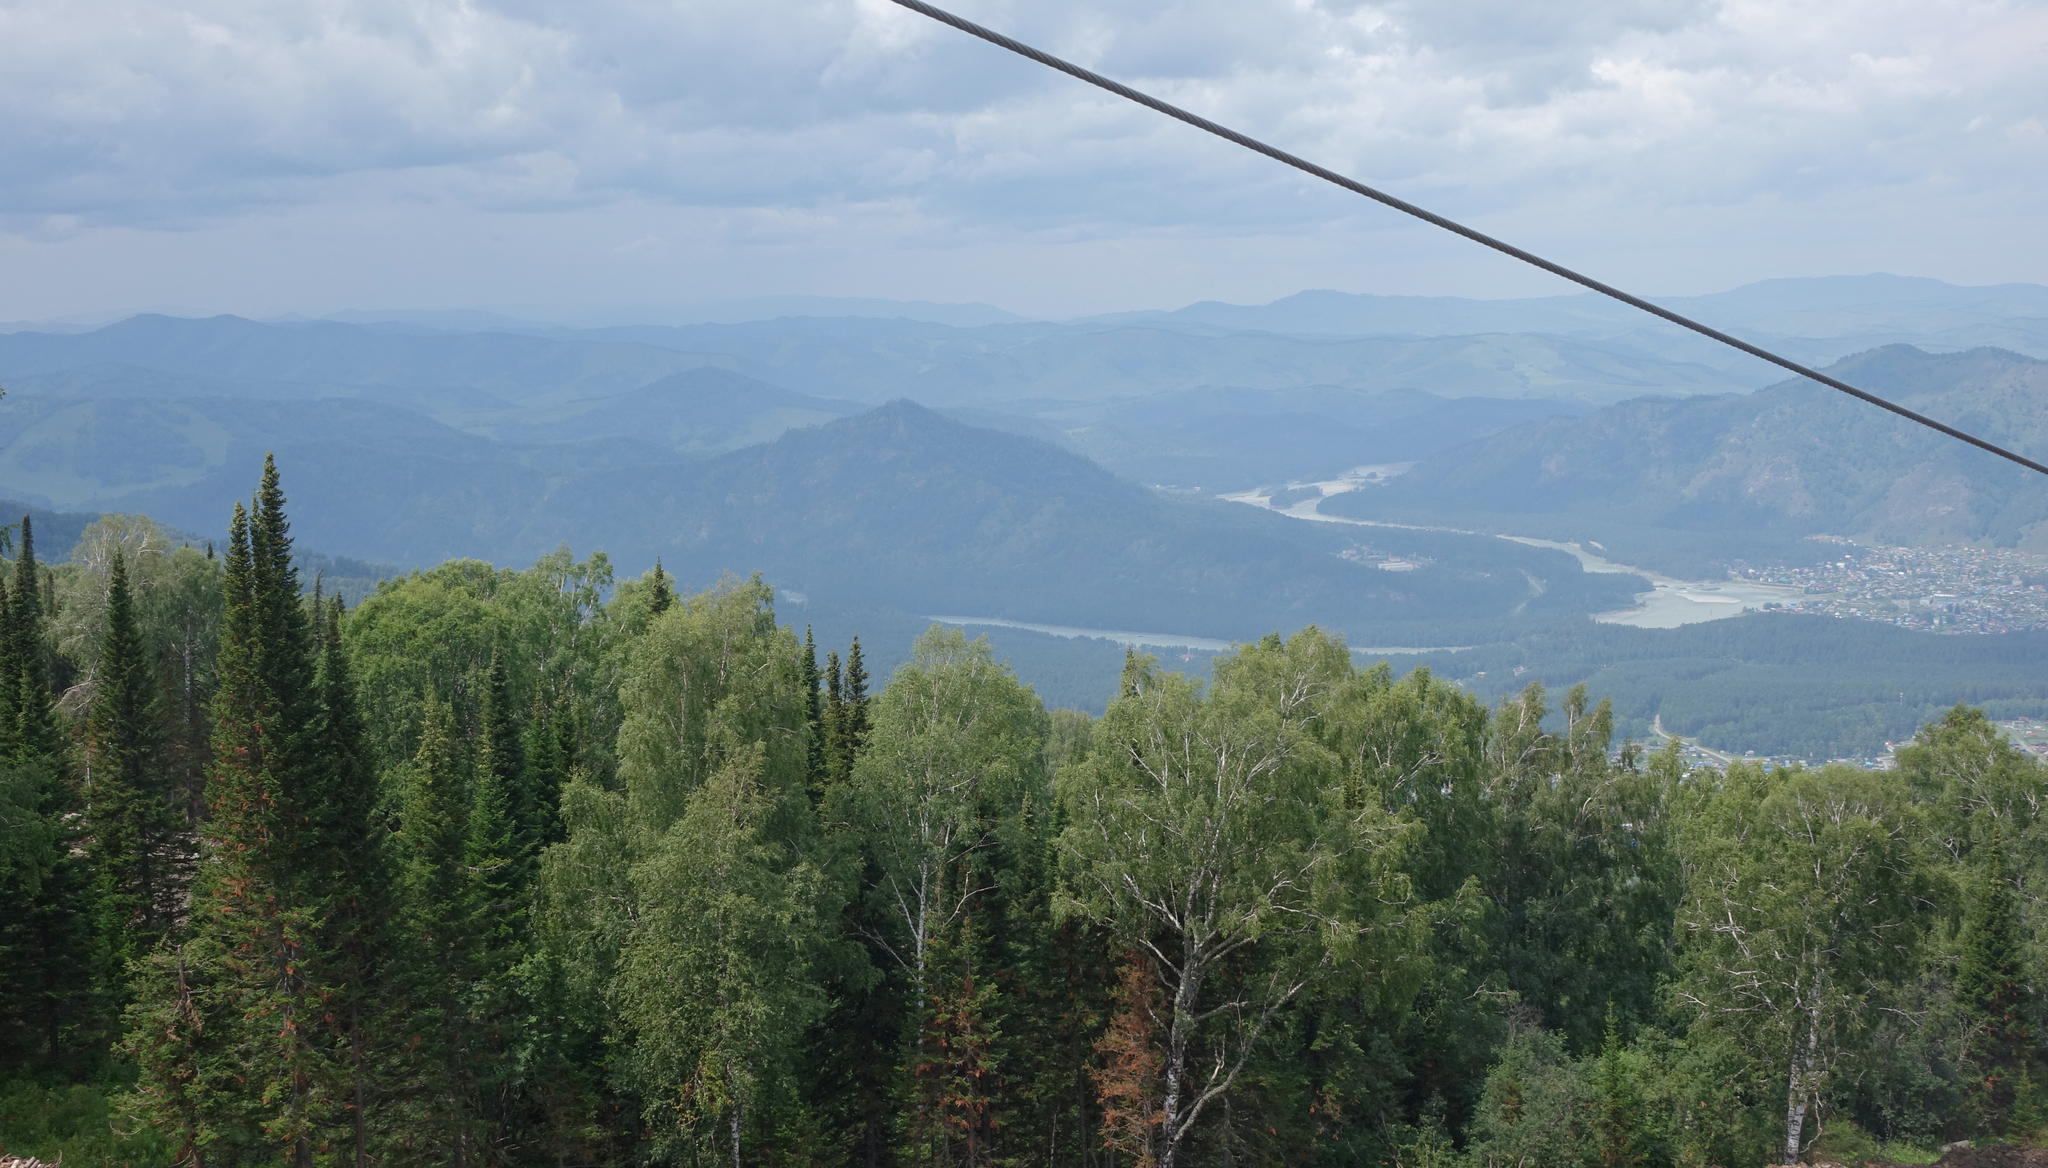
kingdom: Plantae
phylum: Tracheophyta
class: Pinopsida
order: Pinales
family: Pinaceae
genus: Abies
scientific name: Abies sibirica
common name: Siberian fir
